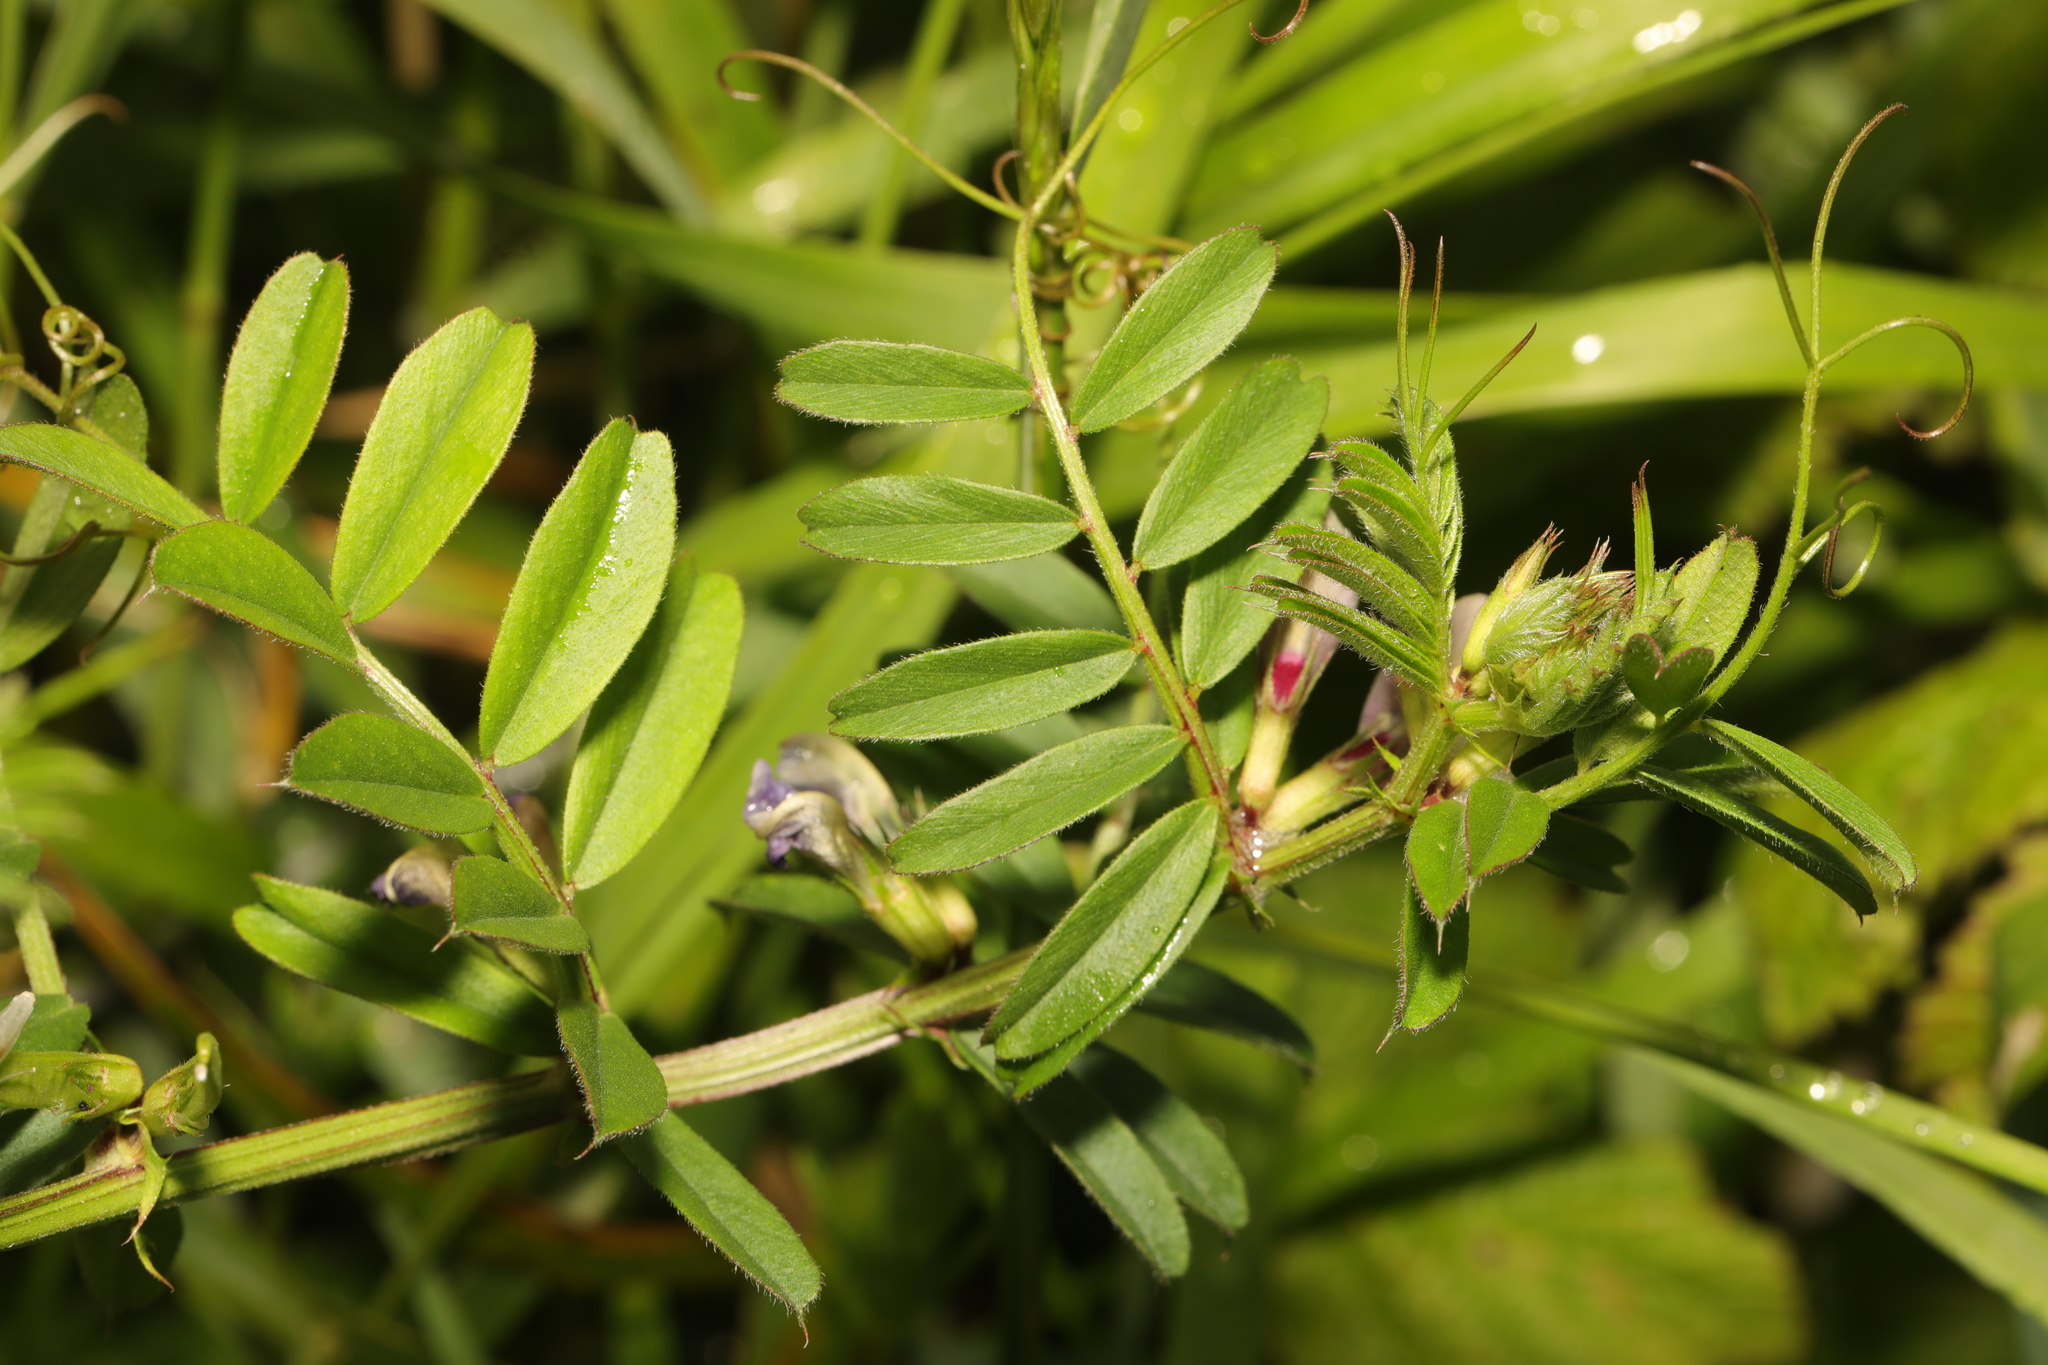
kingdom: Plantae
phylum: Tracheophyta
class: Magnoliopsida
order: Fabales
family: Fabaceae
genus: Vicia
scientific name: Vicia sativa
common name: Garden vetch
